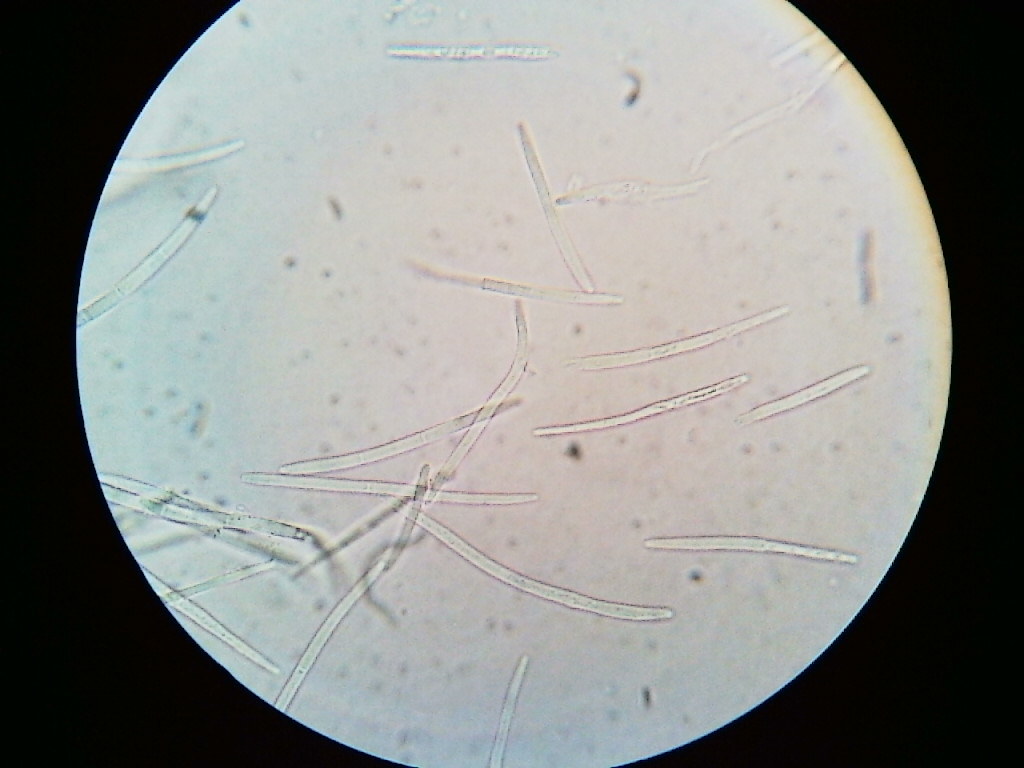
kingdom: Fungi
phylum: Ascomycota
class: Dothideomycetes
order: Mycosphaerellales
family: Mycosphaerellaceae
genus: Septoria
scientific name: Septoria
